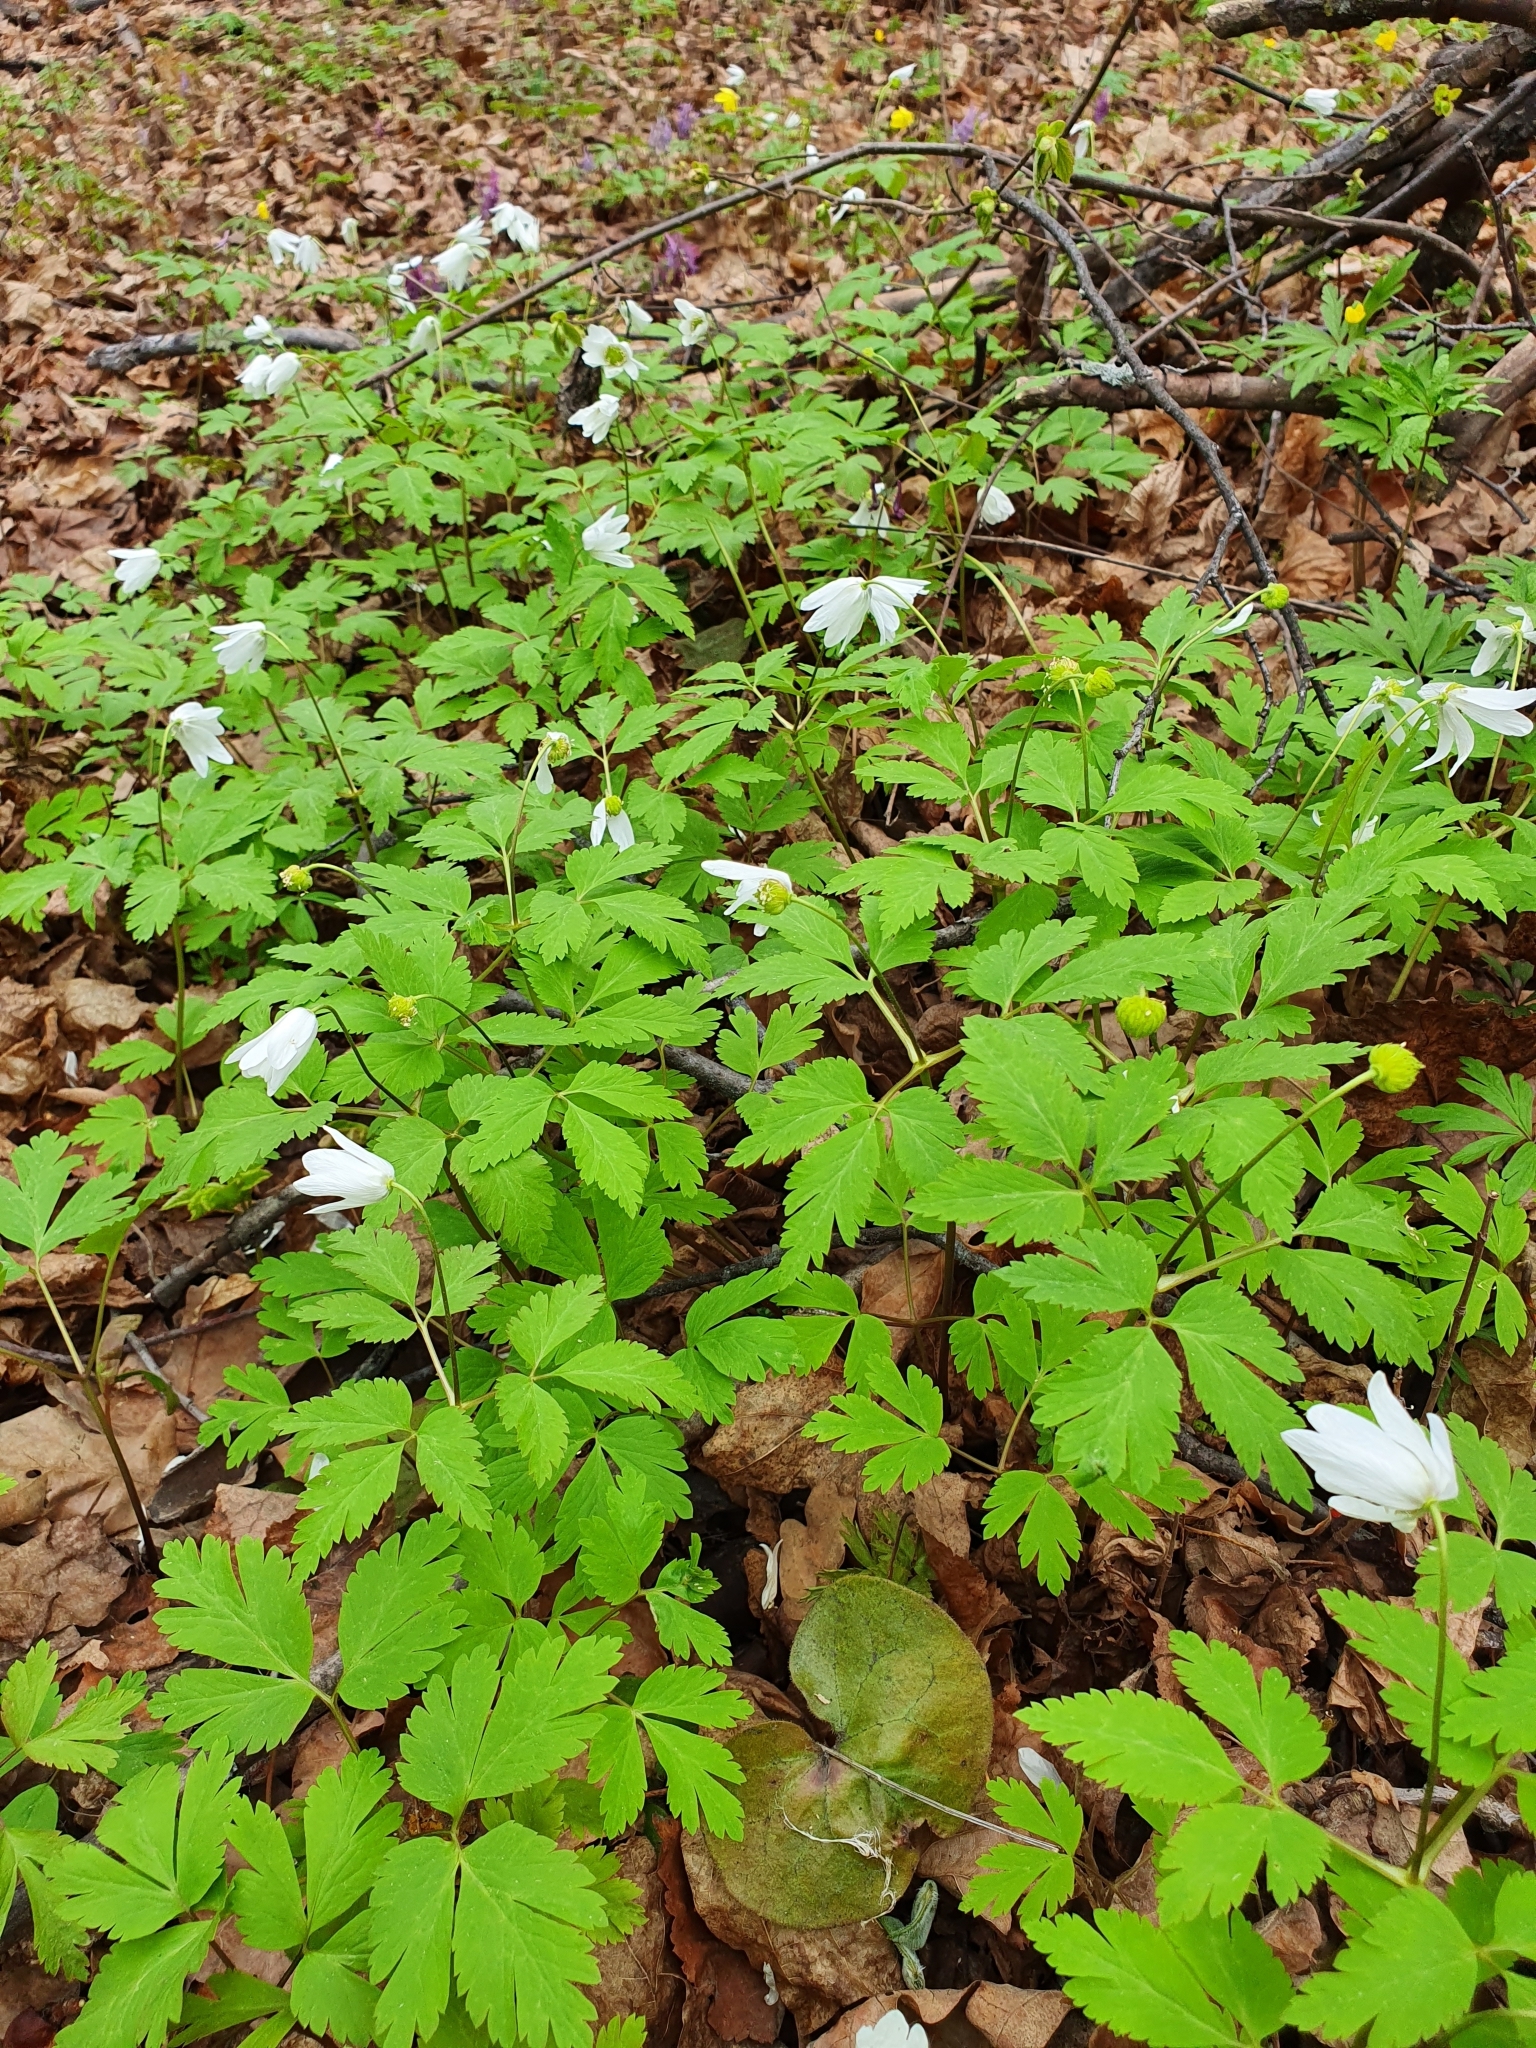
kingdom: Plantae
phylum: Tracheophyta
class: Magnoliopsida
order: Ranunculales
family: Ranunculaceae
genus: Anemone
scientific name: Anemone altaica
